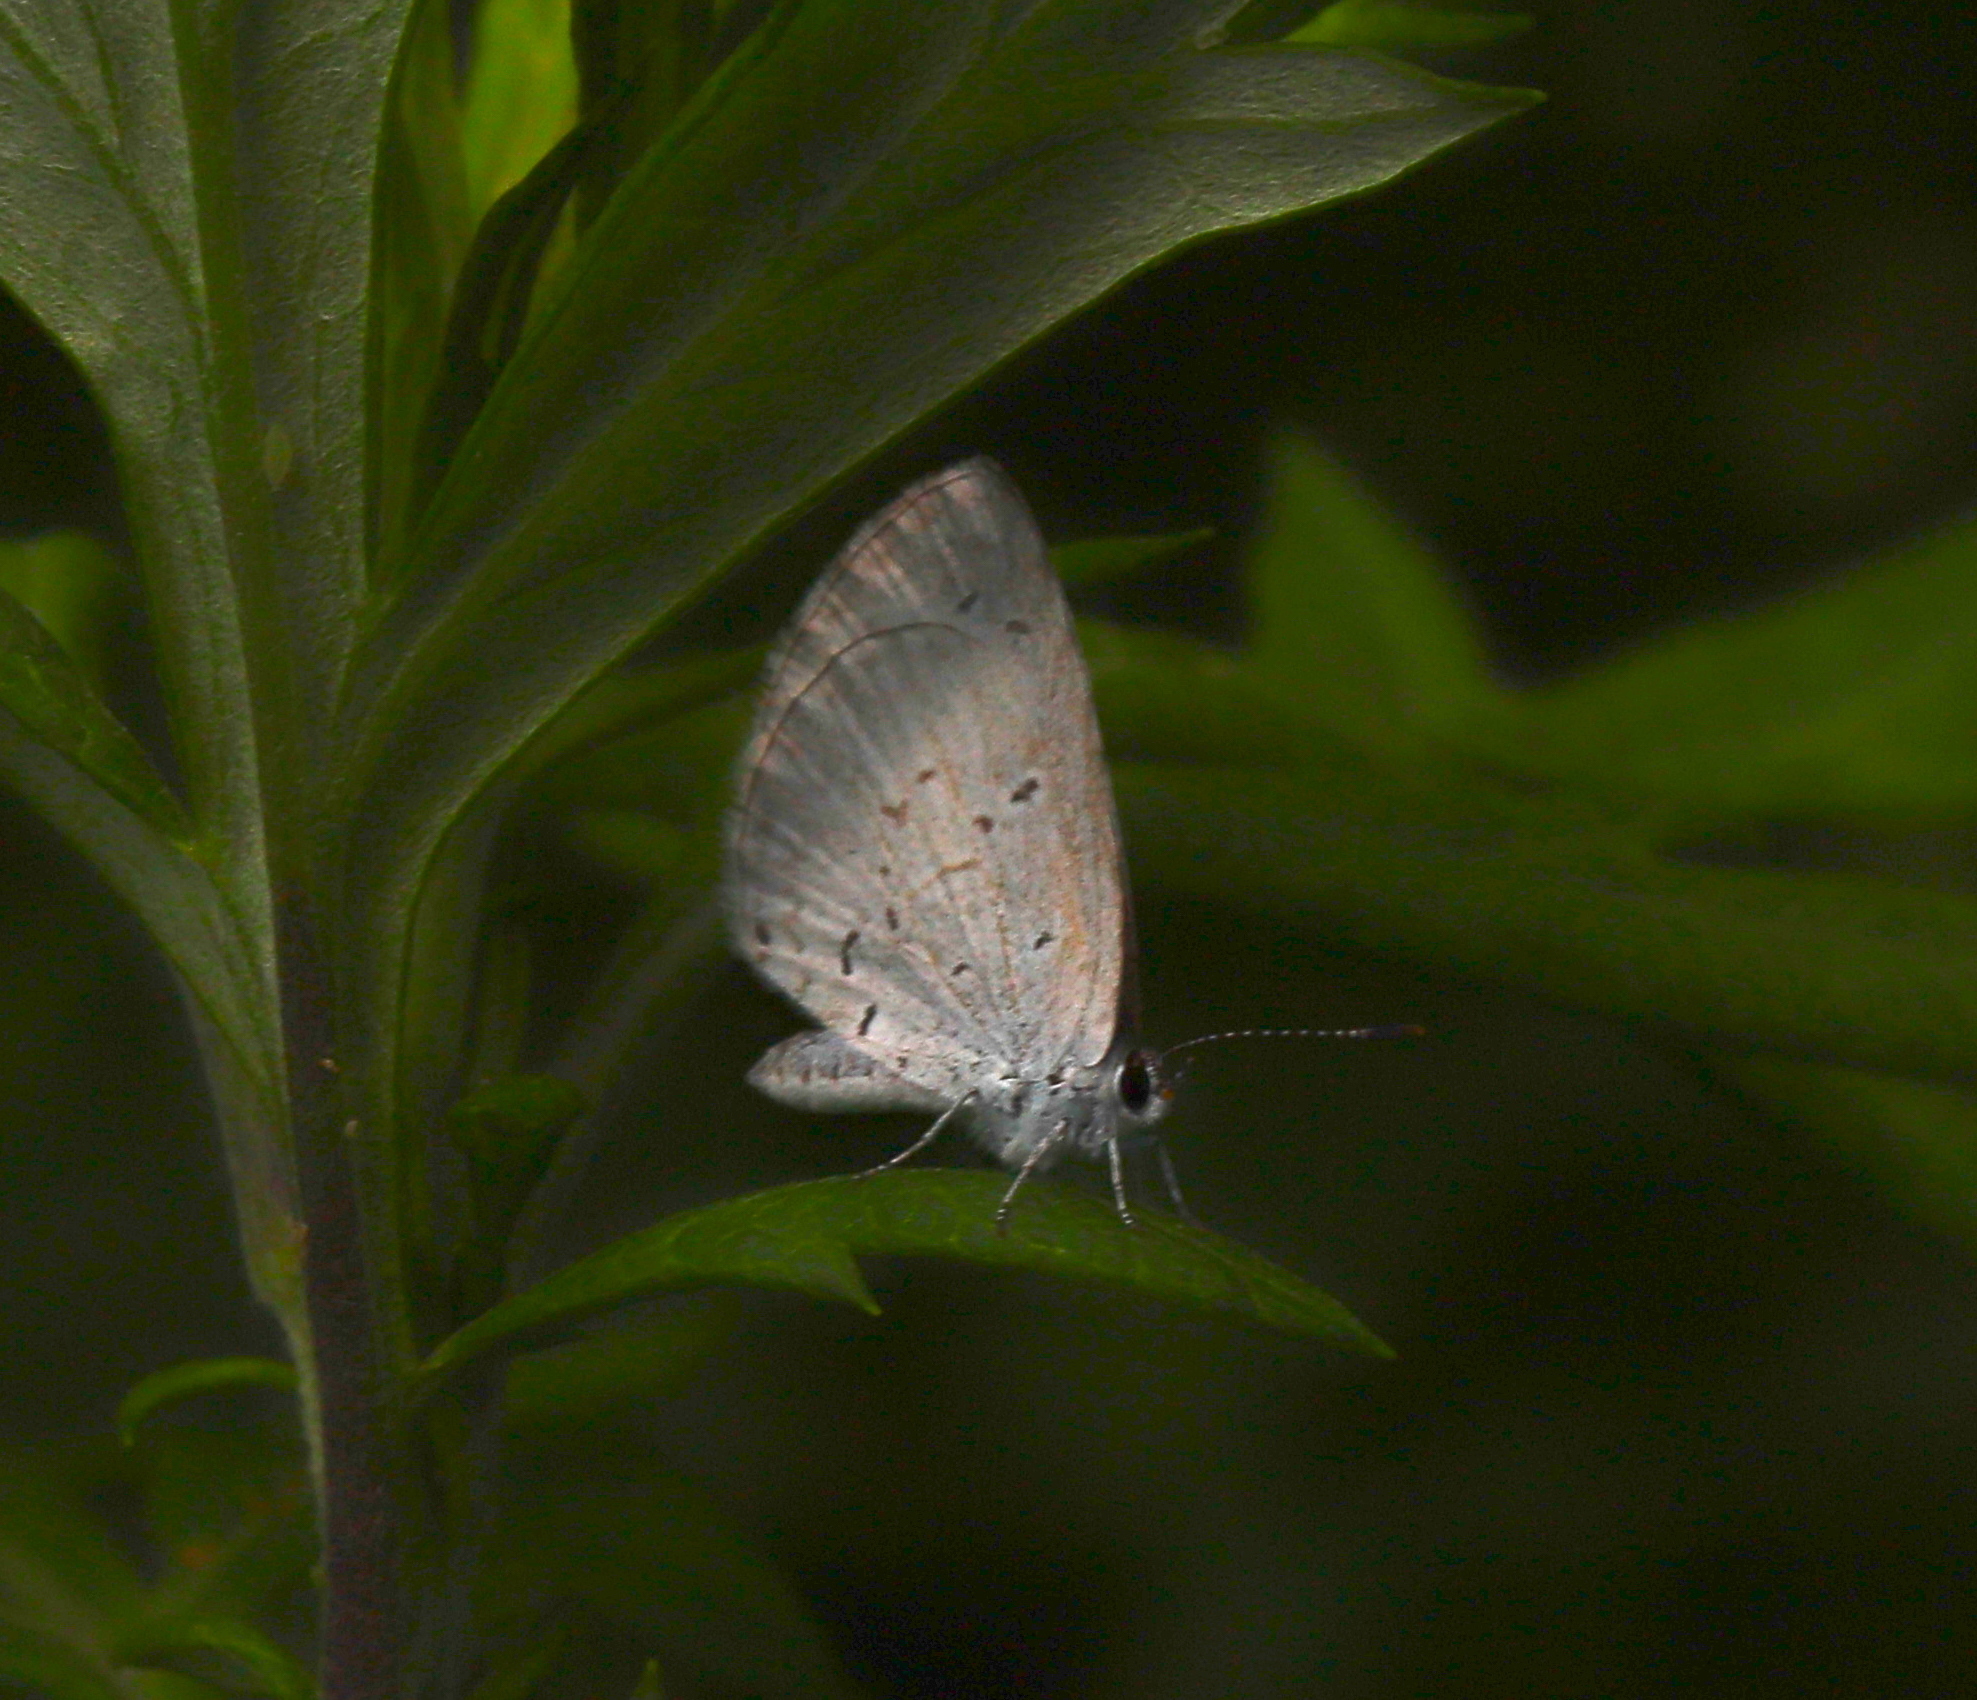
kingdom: Animalia
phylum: Arthropoda
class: Insecta
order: Lepidoptera
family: Lycaenidae
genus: Cyaniris
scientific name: Cyaniris neglecta
